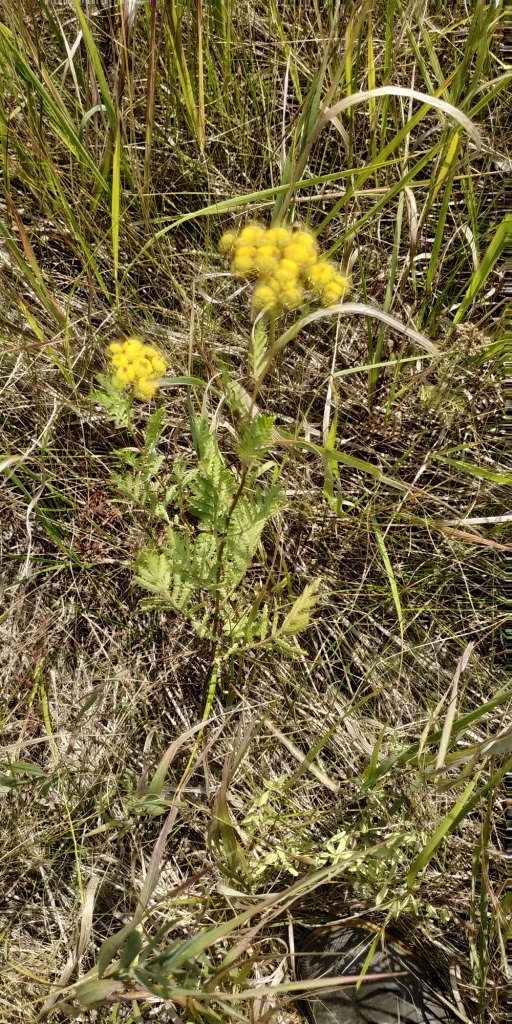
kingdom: Plantae
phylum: Tracheophyta
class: Magnoliopsida
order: Asterales
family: Asteraceae
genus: Tanacetum
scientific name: Tanacetum vulgare
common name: Common tansy
